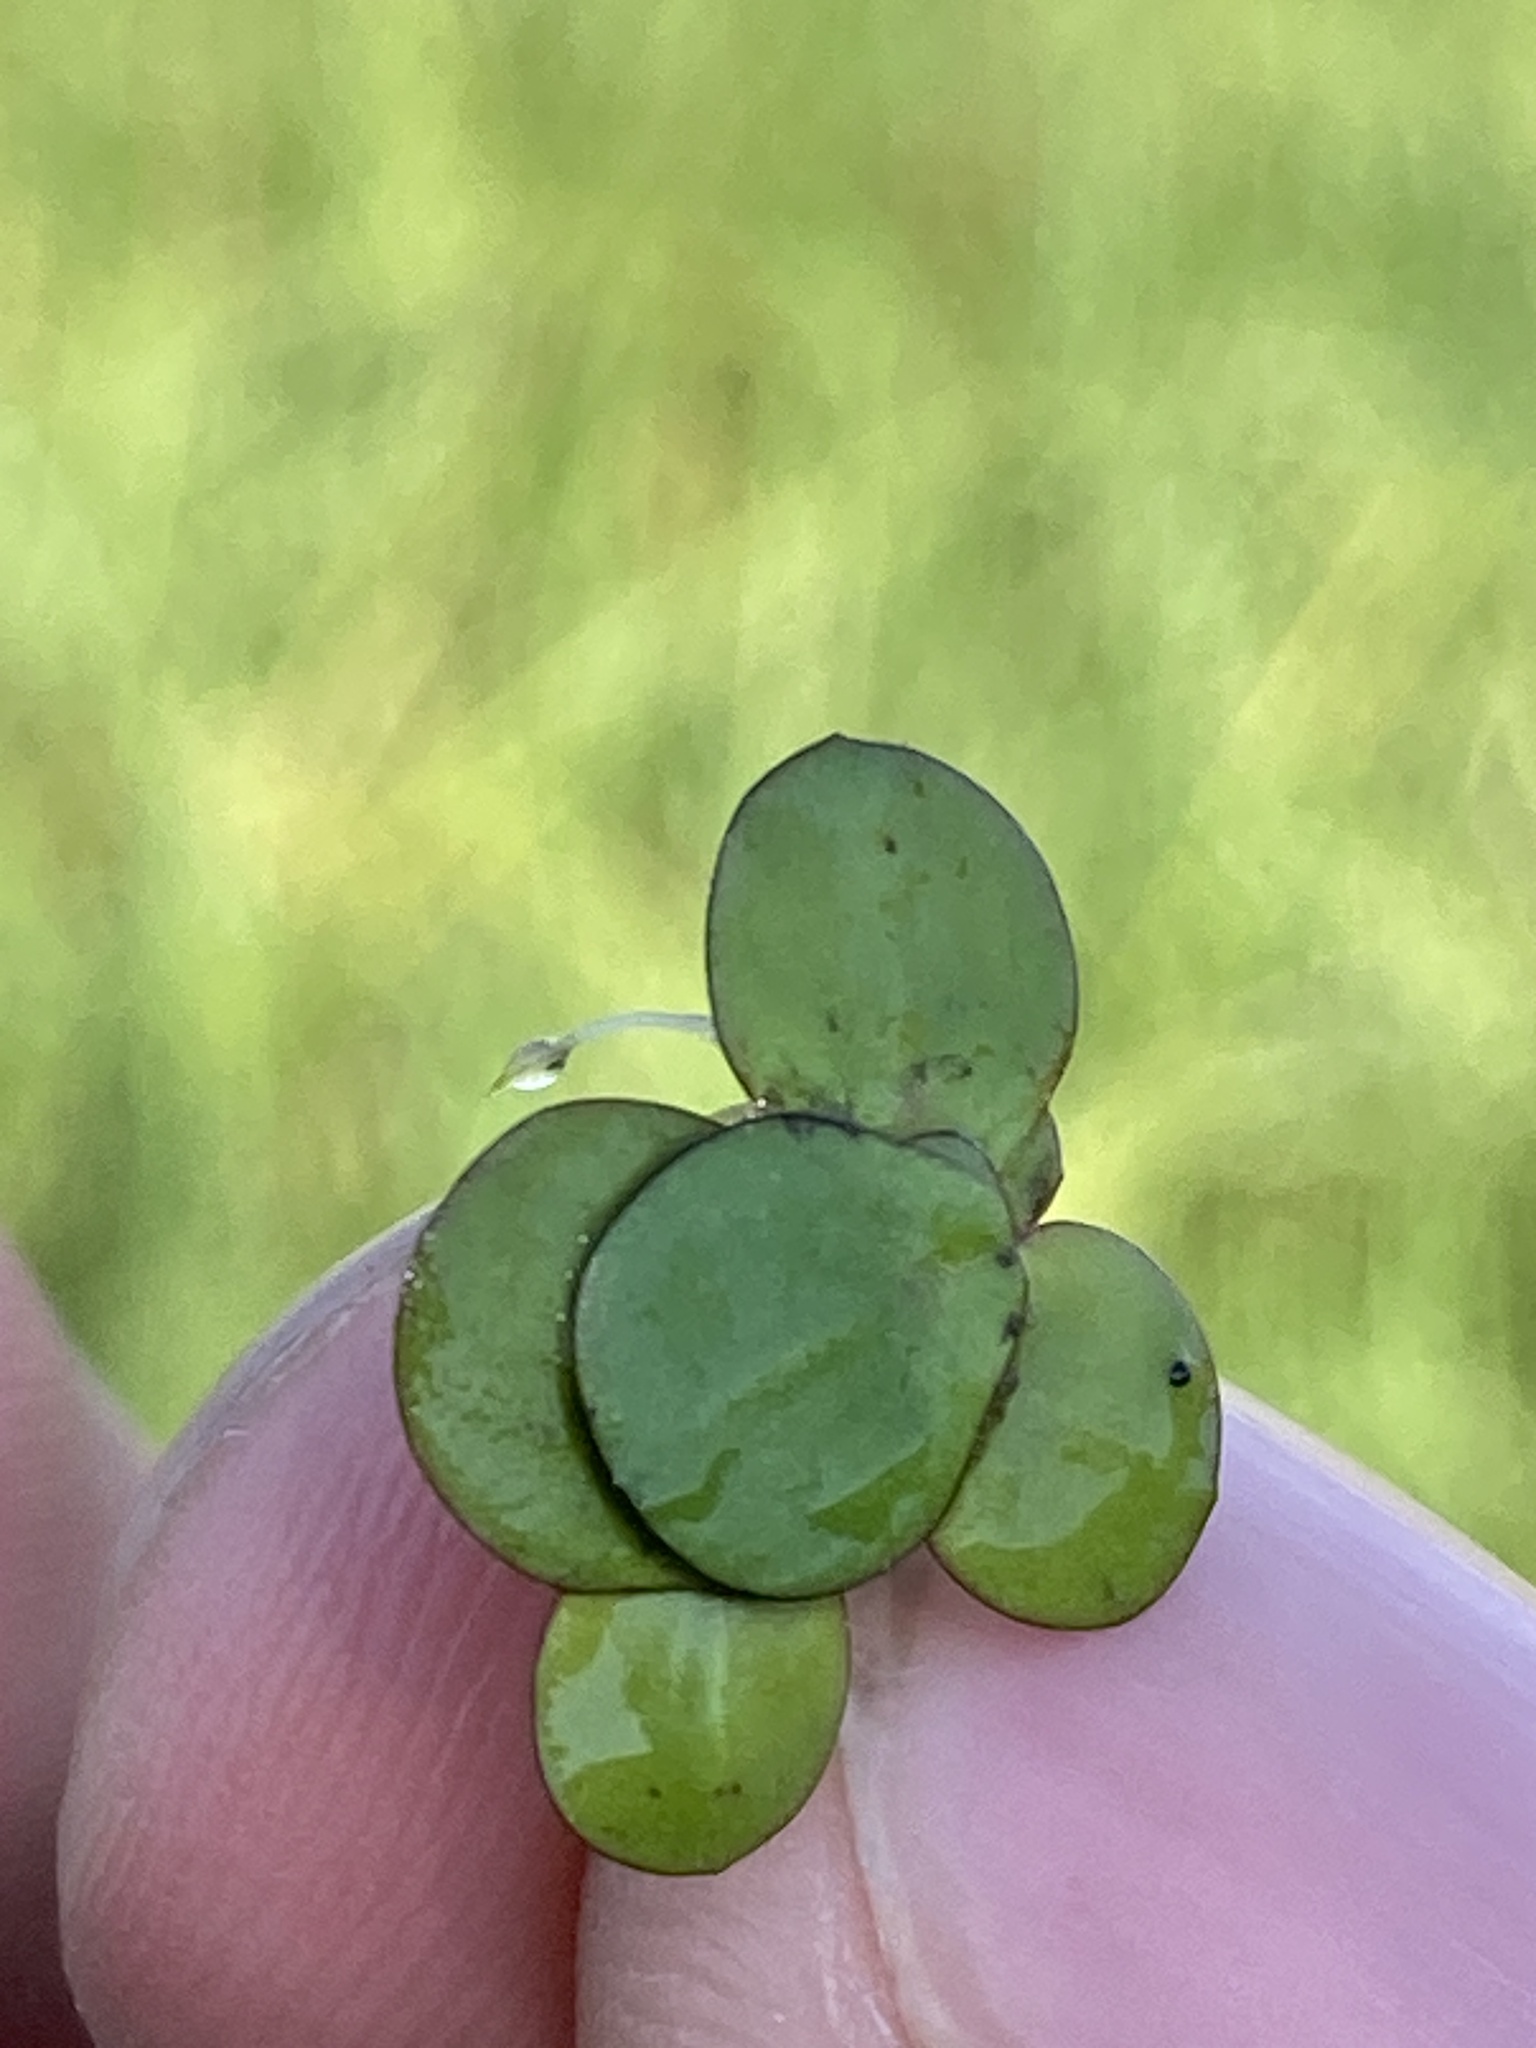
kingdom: Plantae
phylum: Tracheophyta
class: Liliopsida
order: Alismatales
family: Araceae
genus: Spirodela
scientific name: Spirodela polyrhiza
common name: Great duckweed
